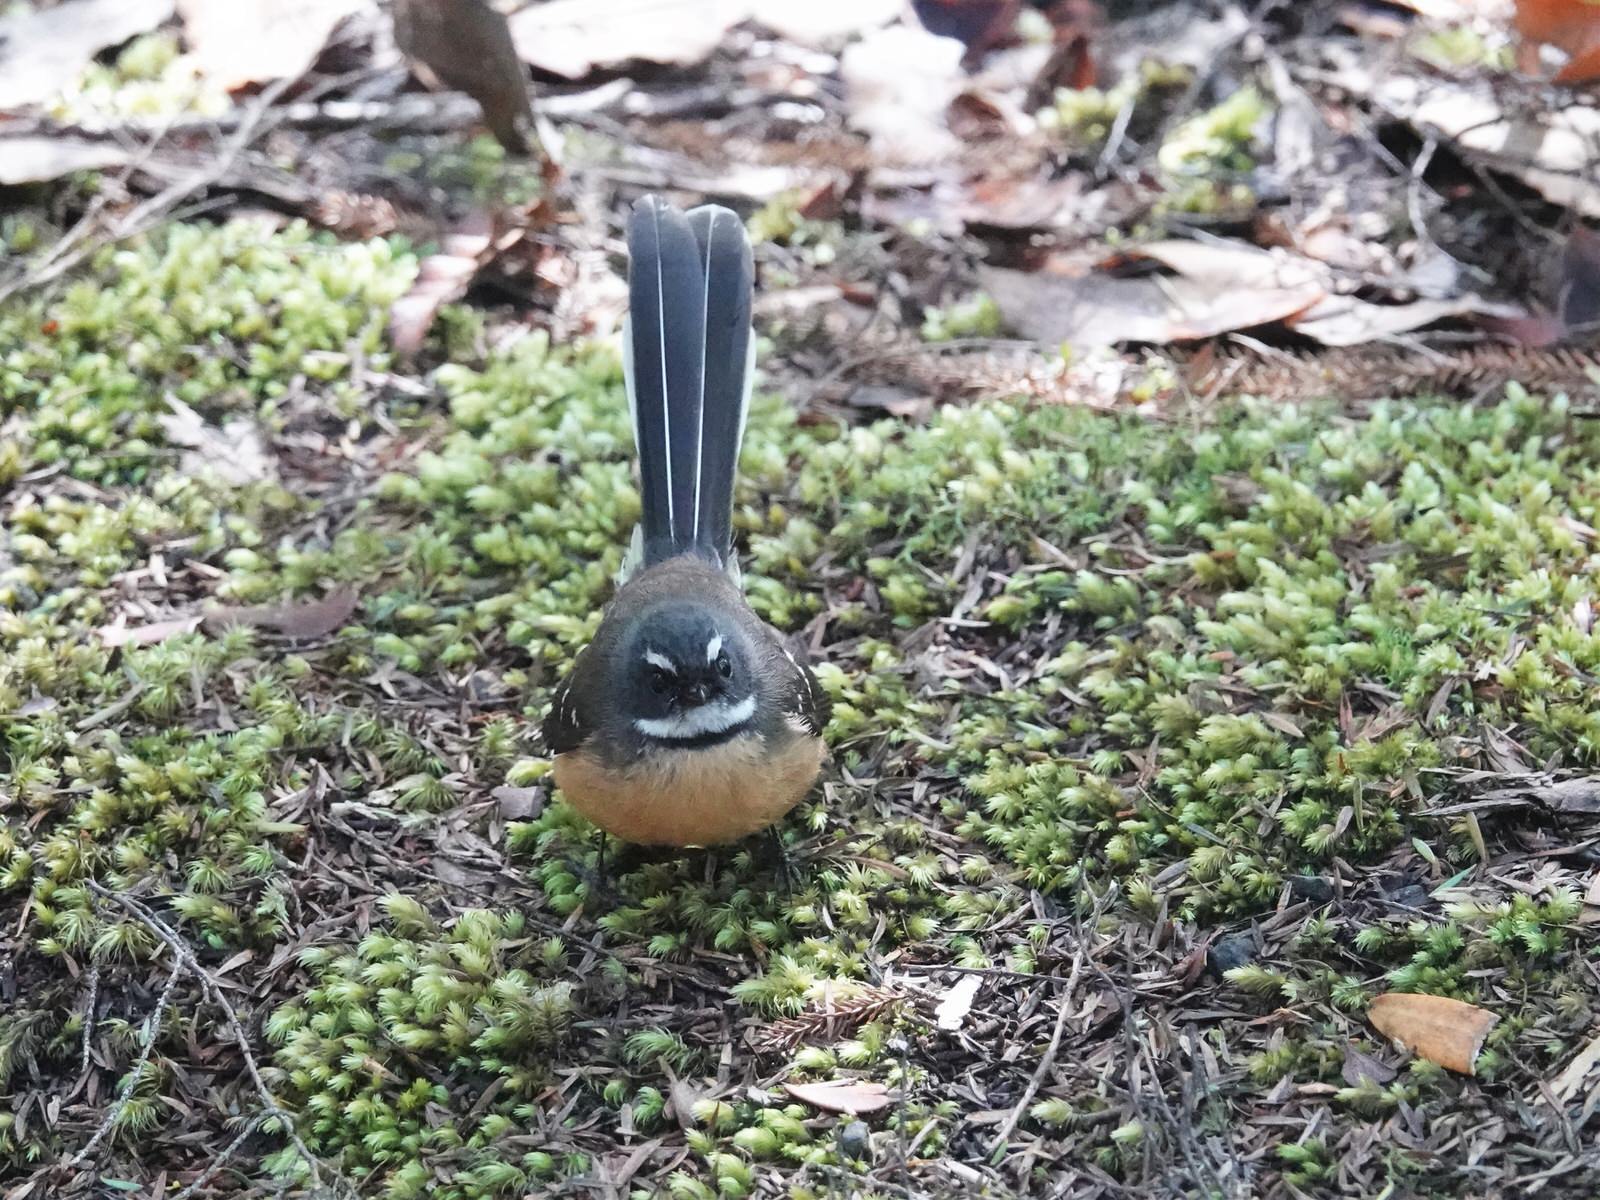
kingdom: Animalia
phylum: Chordata
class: Aves
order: Passeriformes
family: Rhipiduridae
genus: Rhipidura
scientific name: Rhipidura fuliginosa
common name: New zealand fantail
